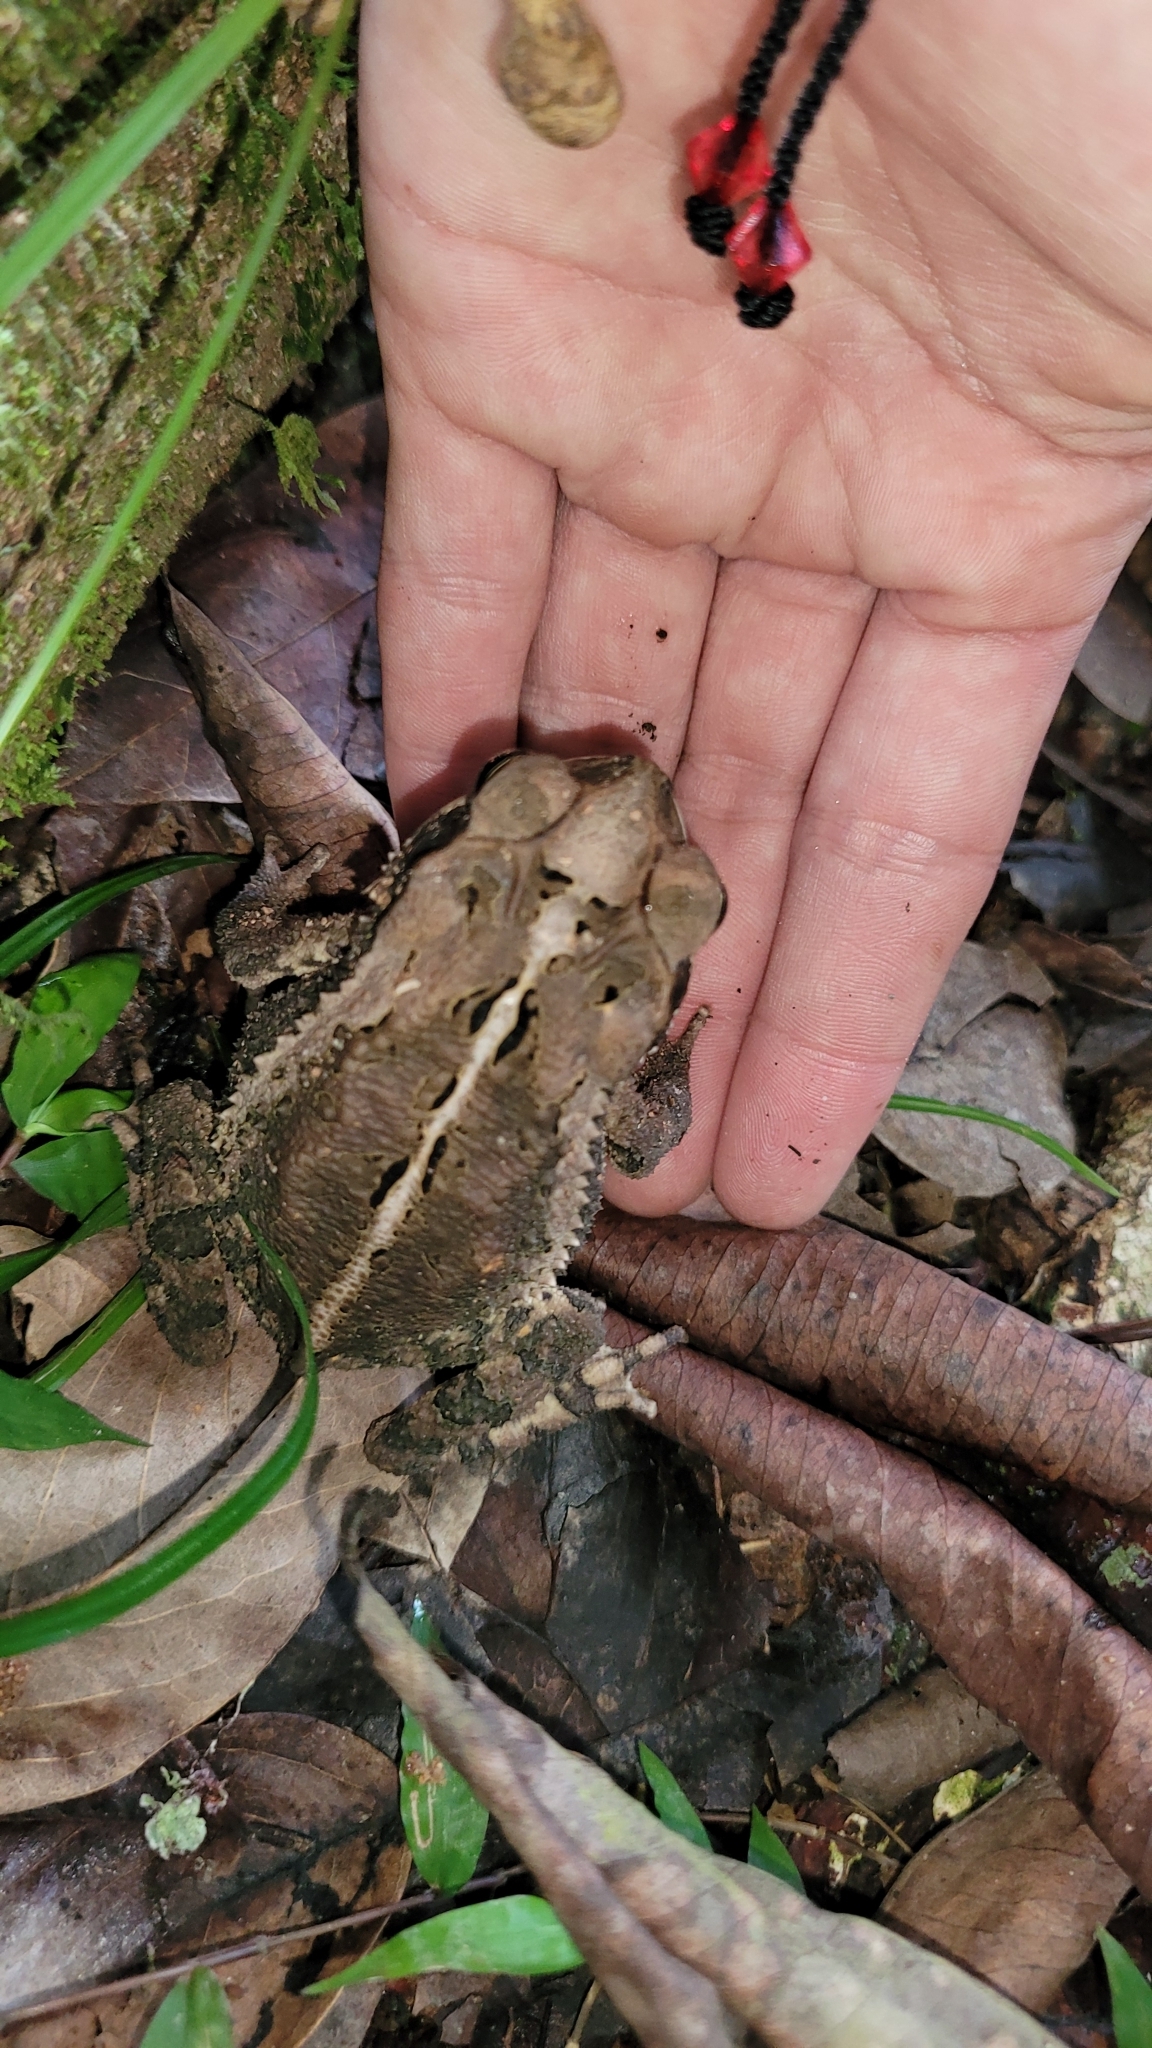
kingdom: Animalia
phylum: Chordata
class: Amphibia
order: Anura
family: Bufonidae
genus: Incilius
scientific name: Incilius valliceps
